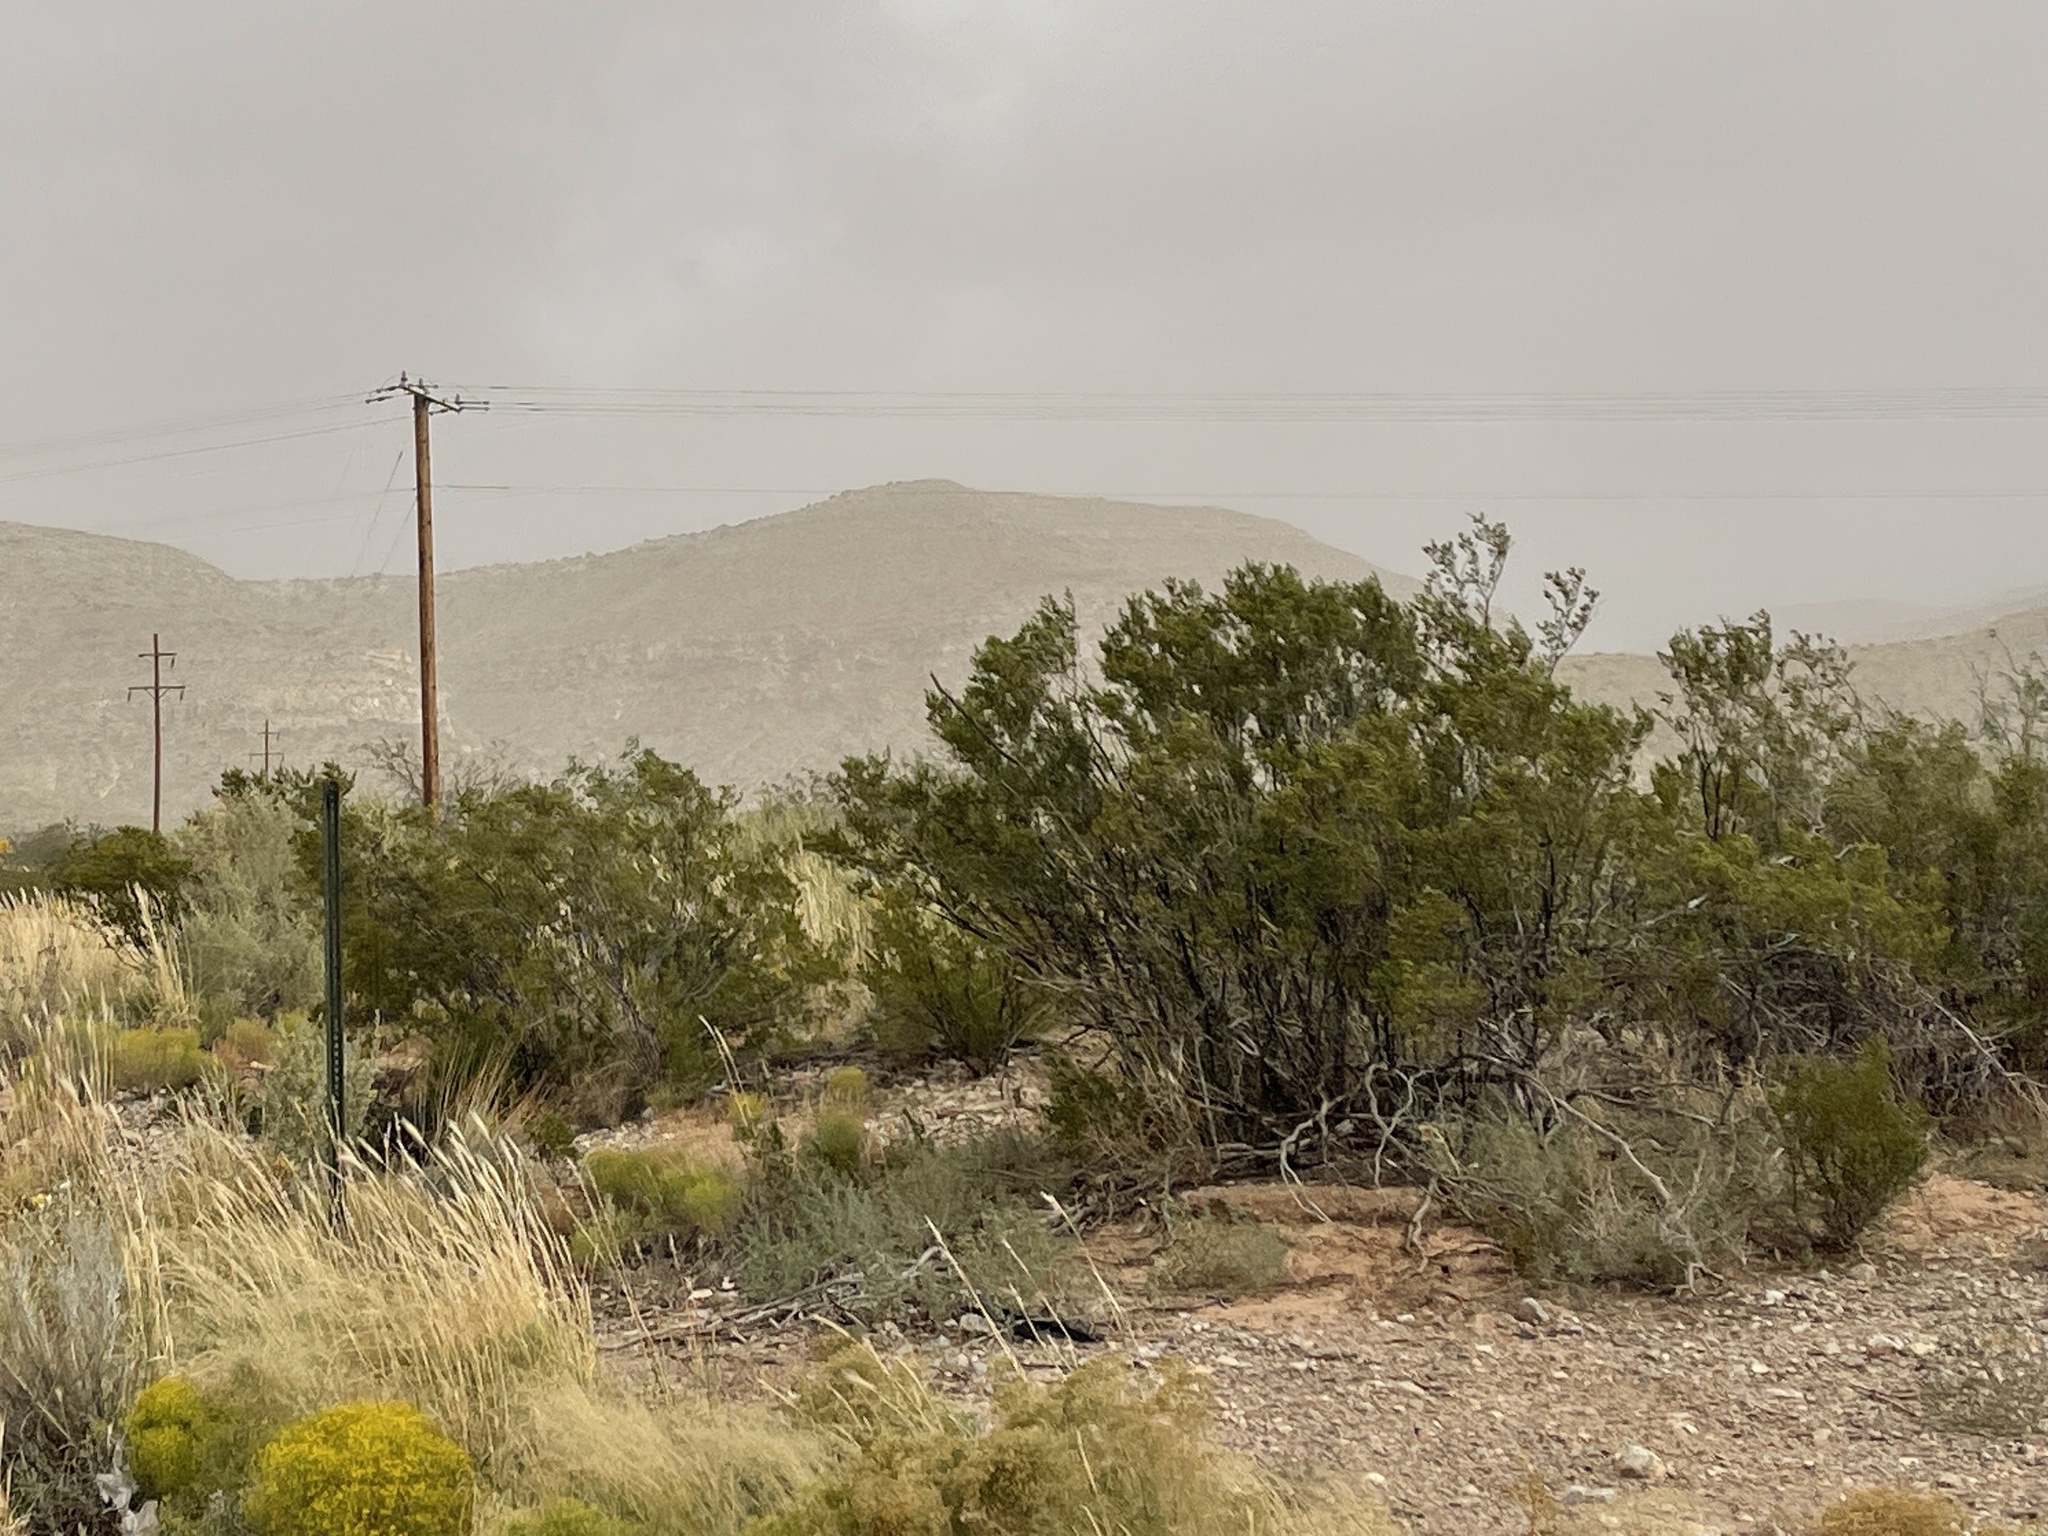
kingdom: Plantae
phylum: Tracheophyta
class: Magnoliopsida
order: Zygophyllales
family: Zygophyllaceae
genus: Larrea
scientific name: Larrea tridentata
